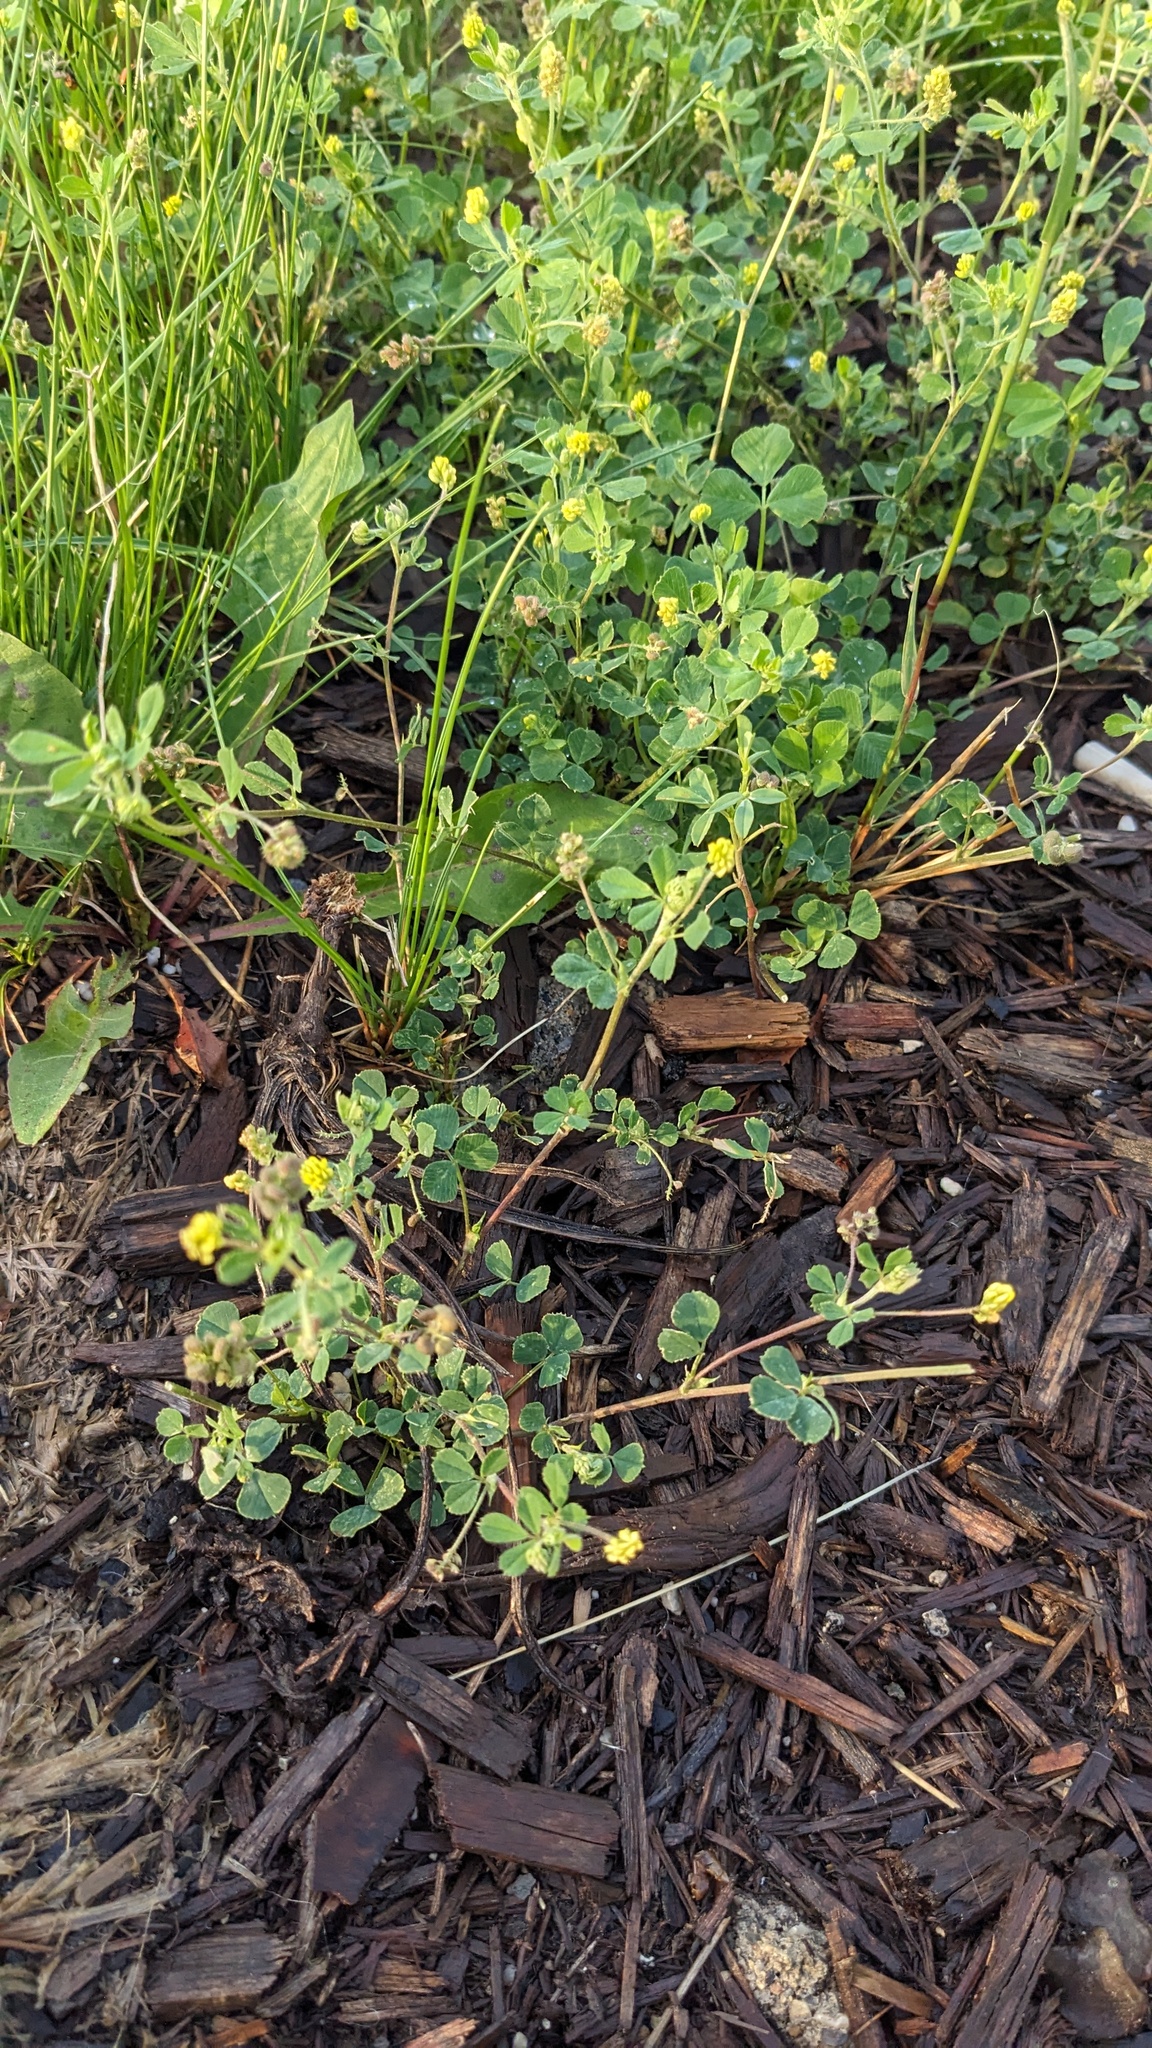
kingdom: Plantae
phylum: Tracheophyta
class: Magnoliopsida
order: Fabales
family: Fabaceae
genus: Medicago
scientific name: Medicago lupulina
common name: Black medick
